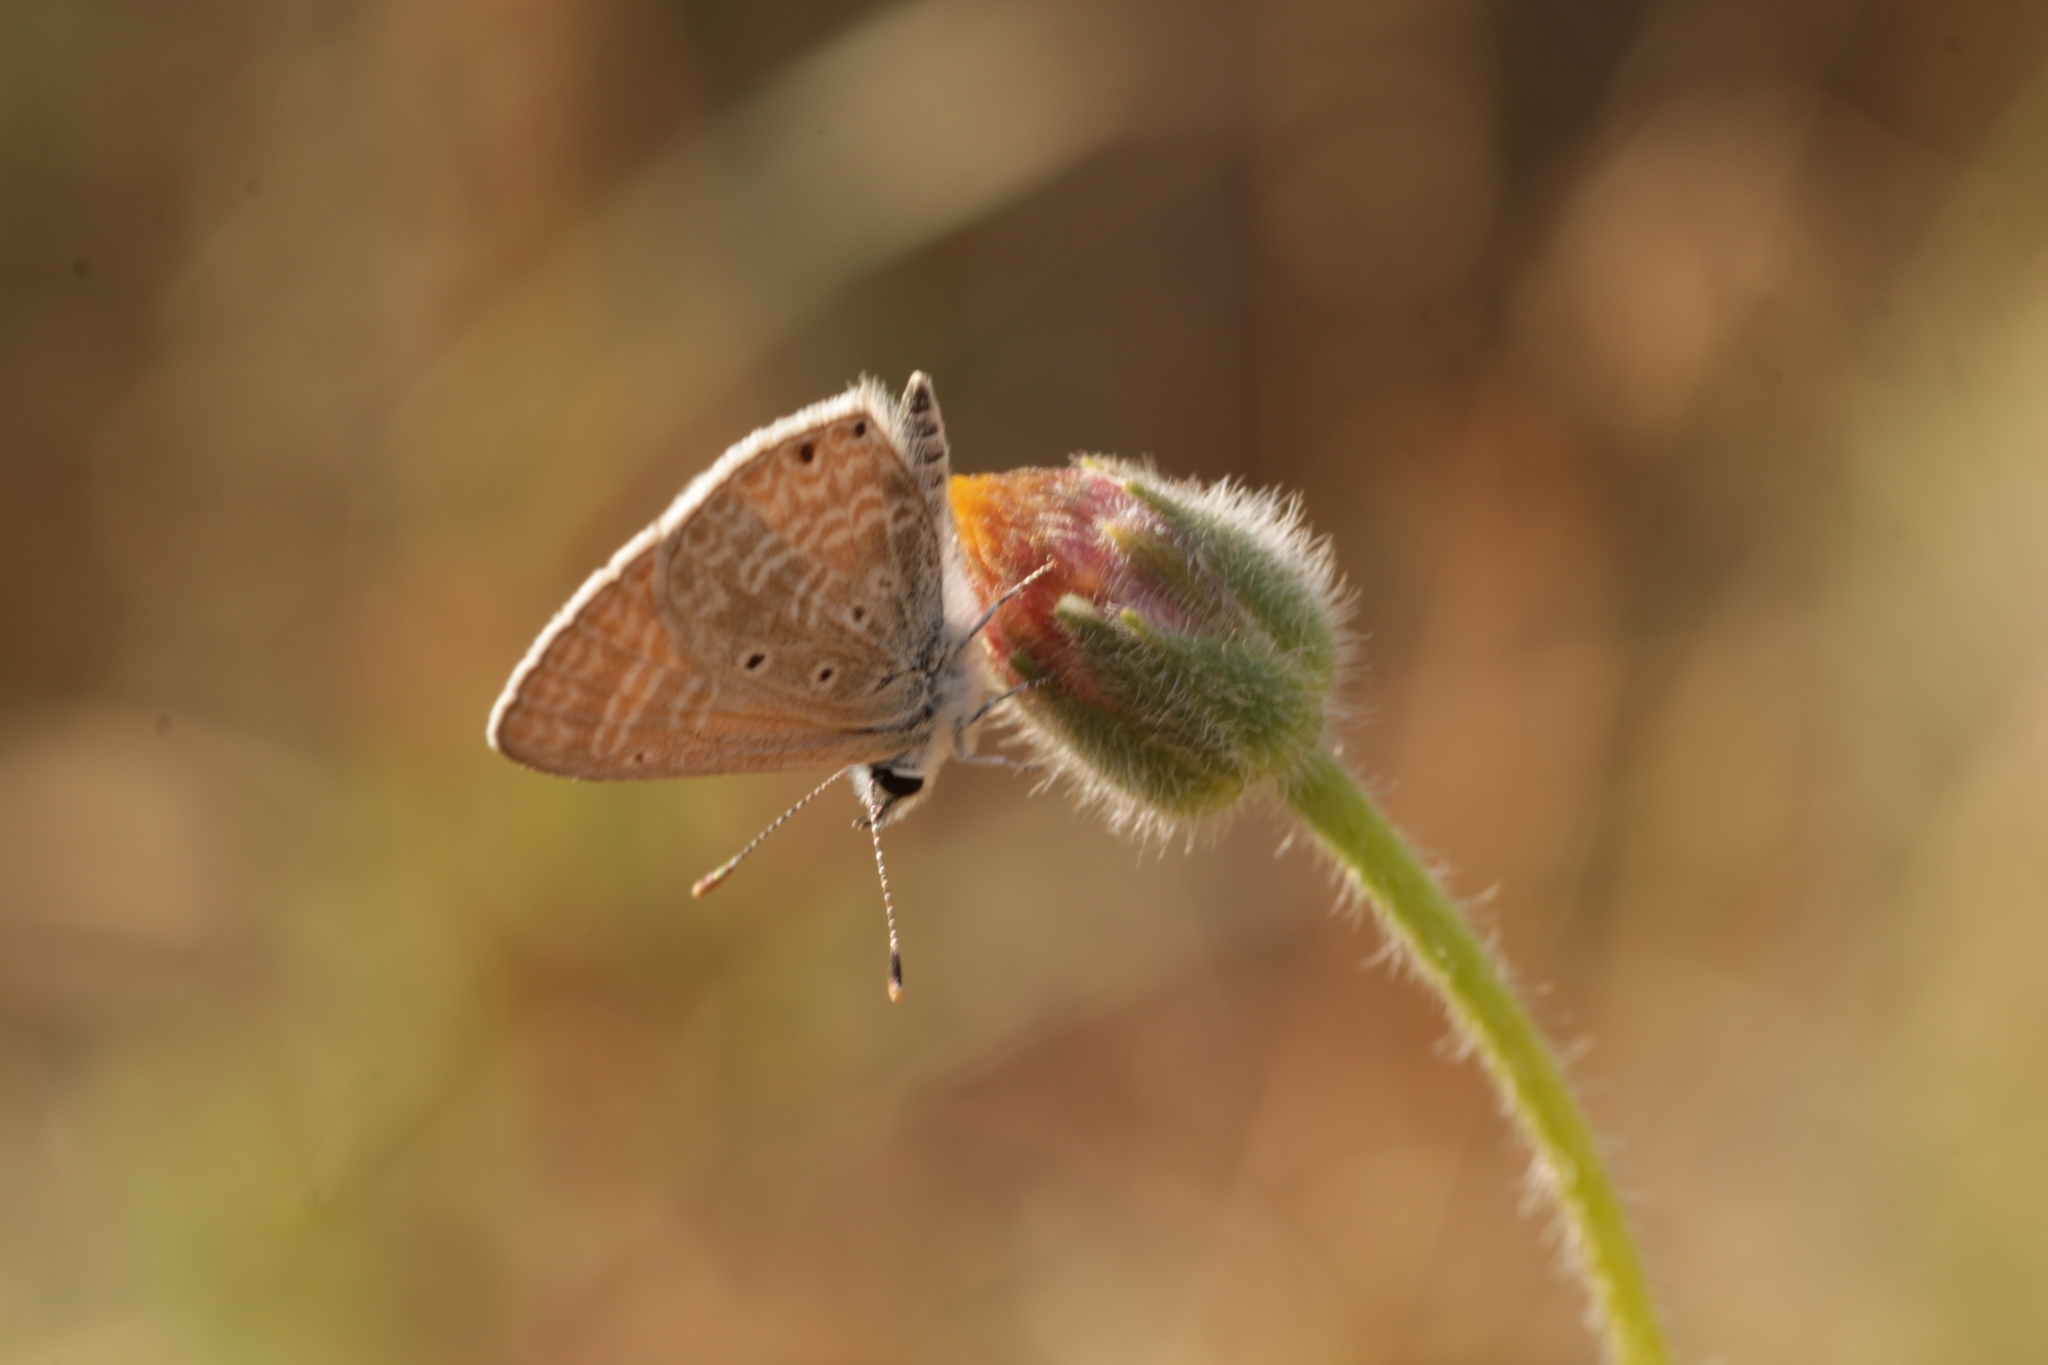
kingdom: Animalia
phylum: Arthropoda
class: Insecta
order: Lepidoptera
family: Lycaenidae
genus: Azanus
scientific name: Azanus uranus
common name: Dull babul blue
